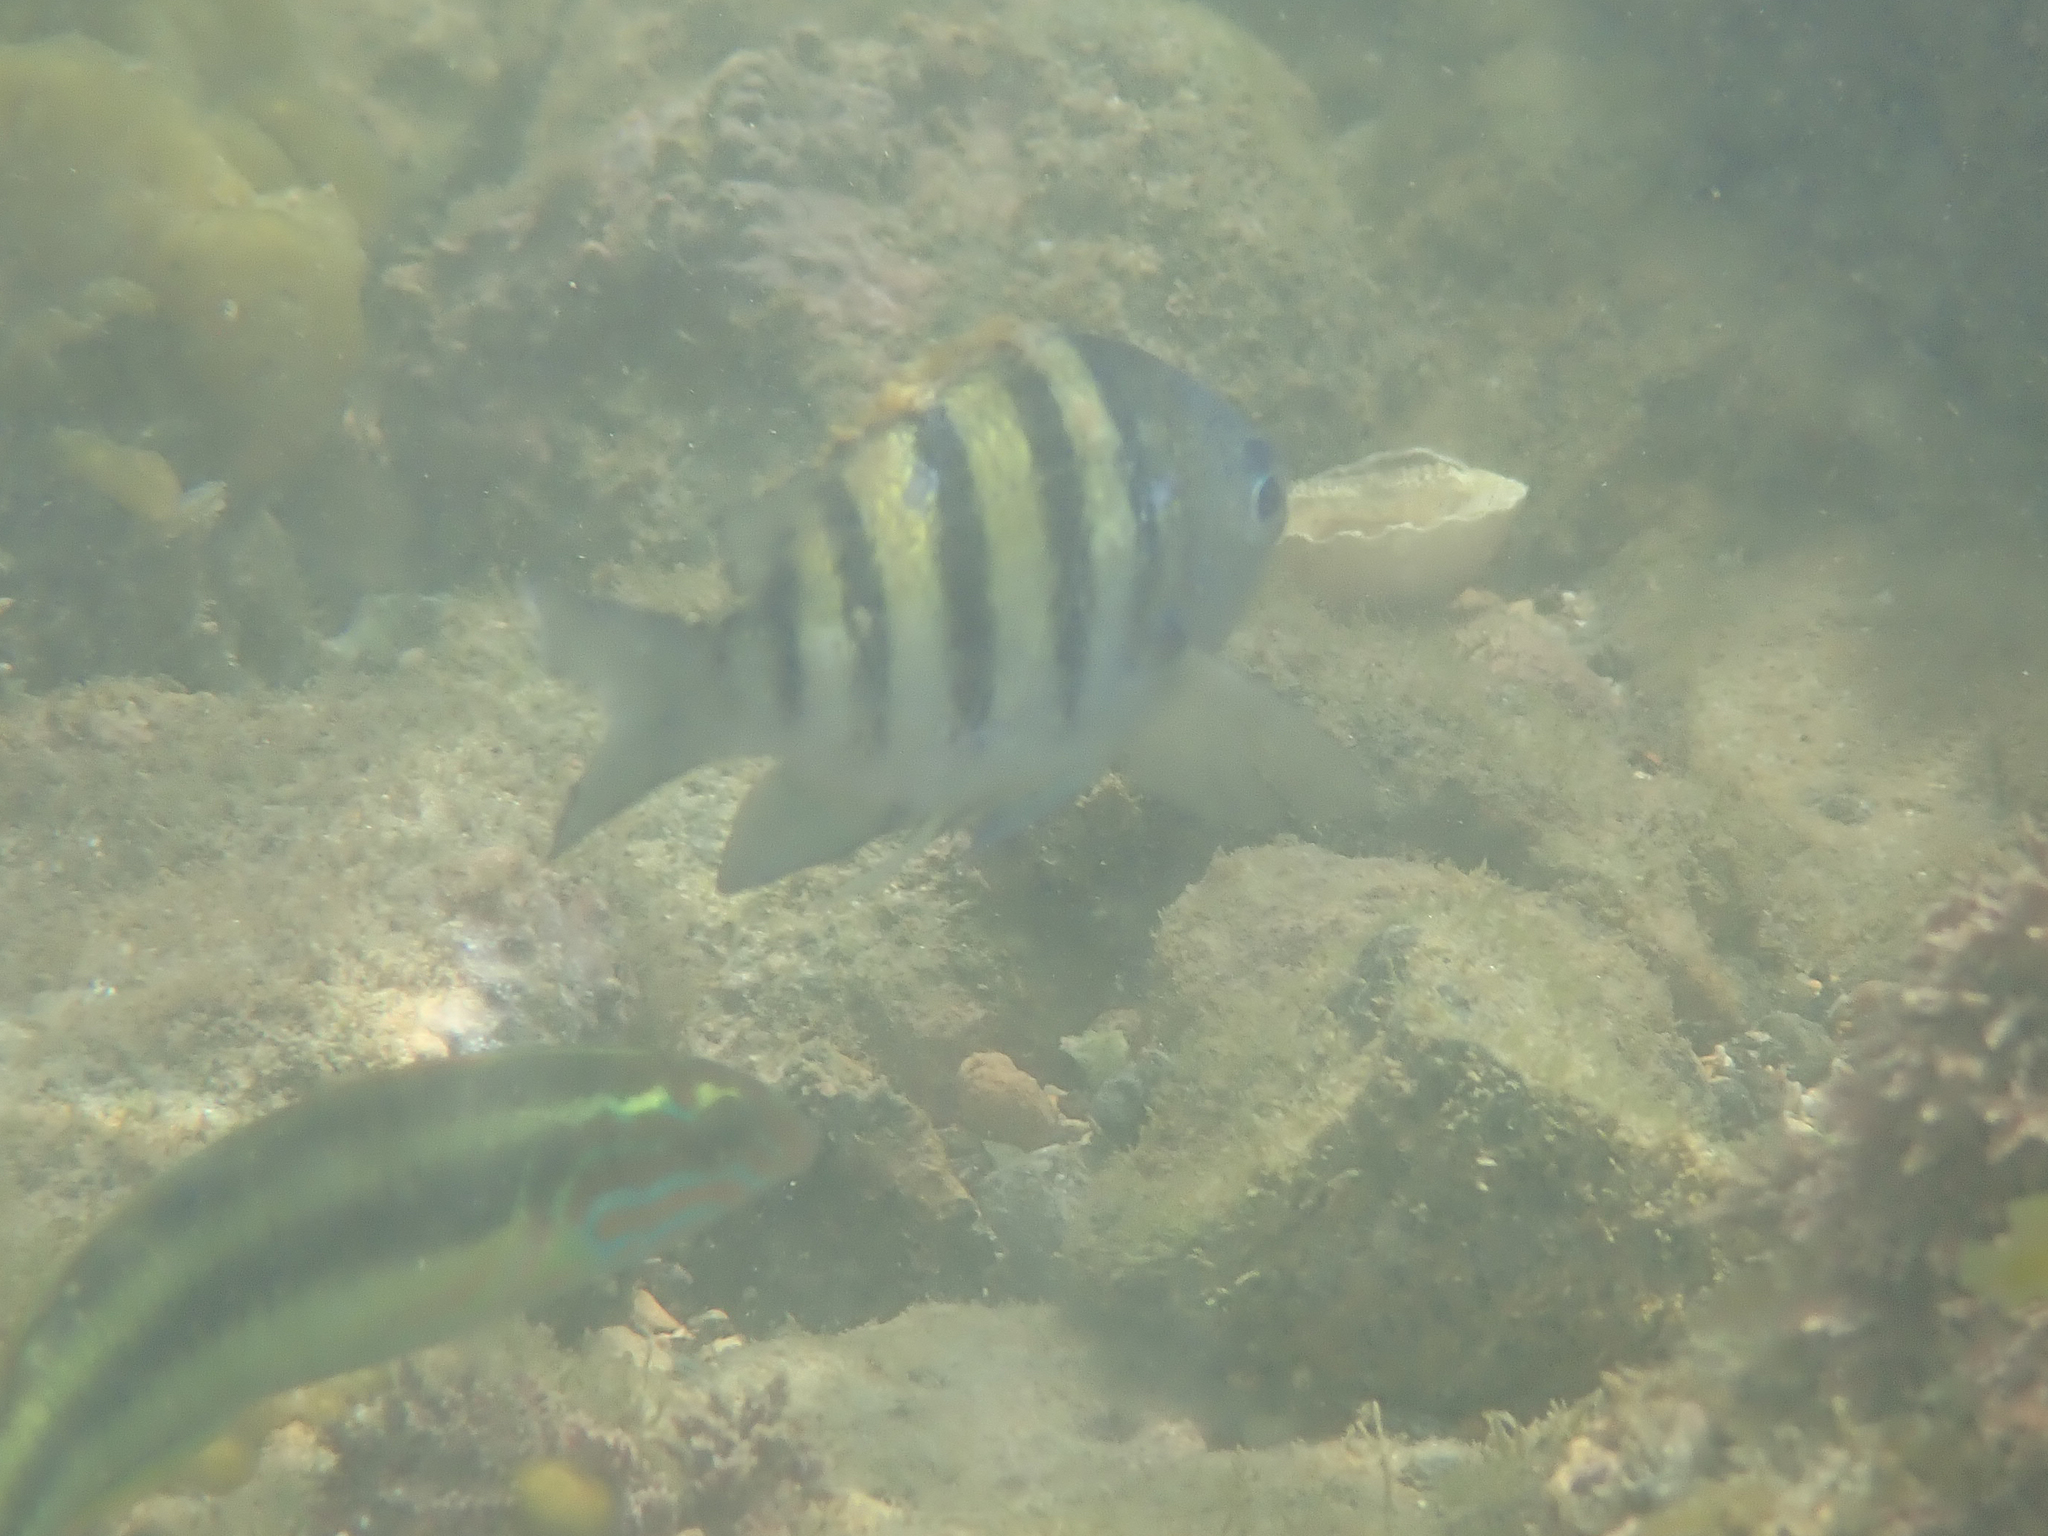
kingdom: Animalia
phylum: Chordata
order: Perciformes
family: Pomacentridae
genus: Abudefduf
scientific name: Abudefduf saxatilis
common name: Sergeant major
